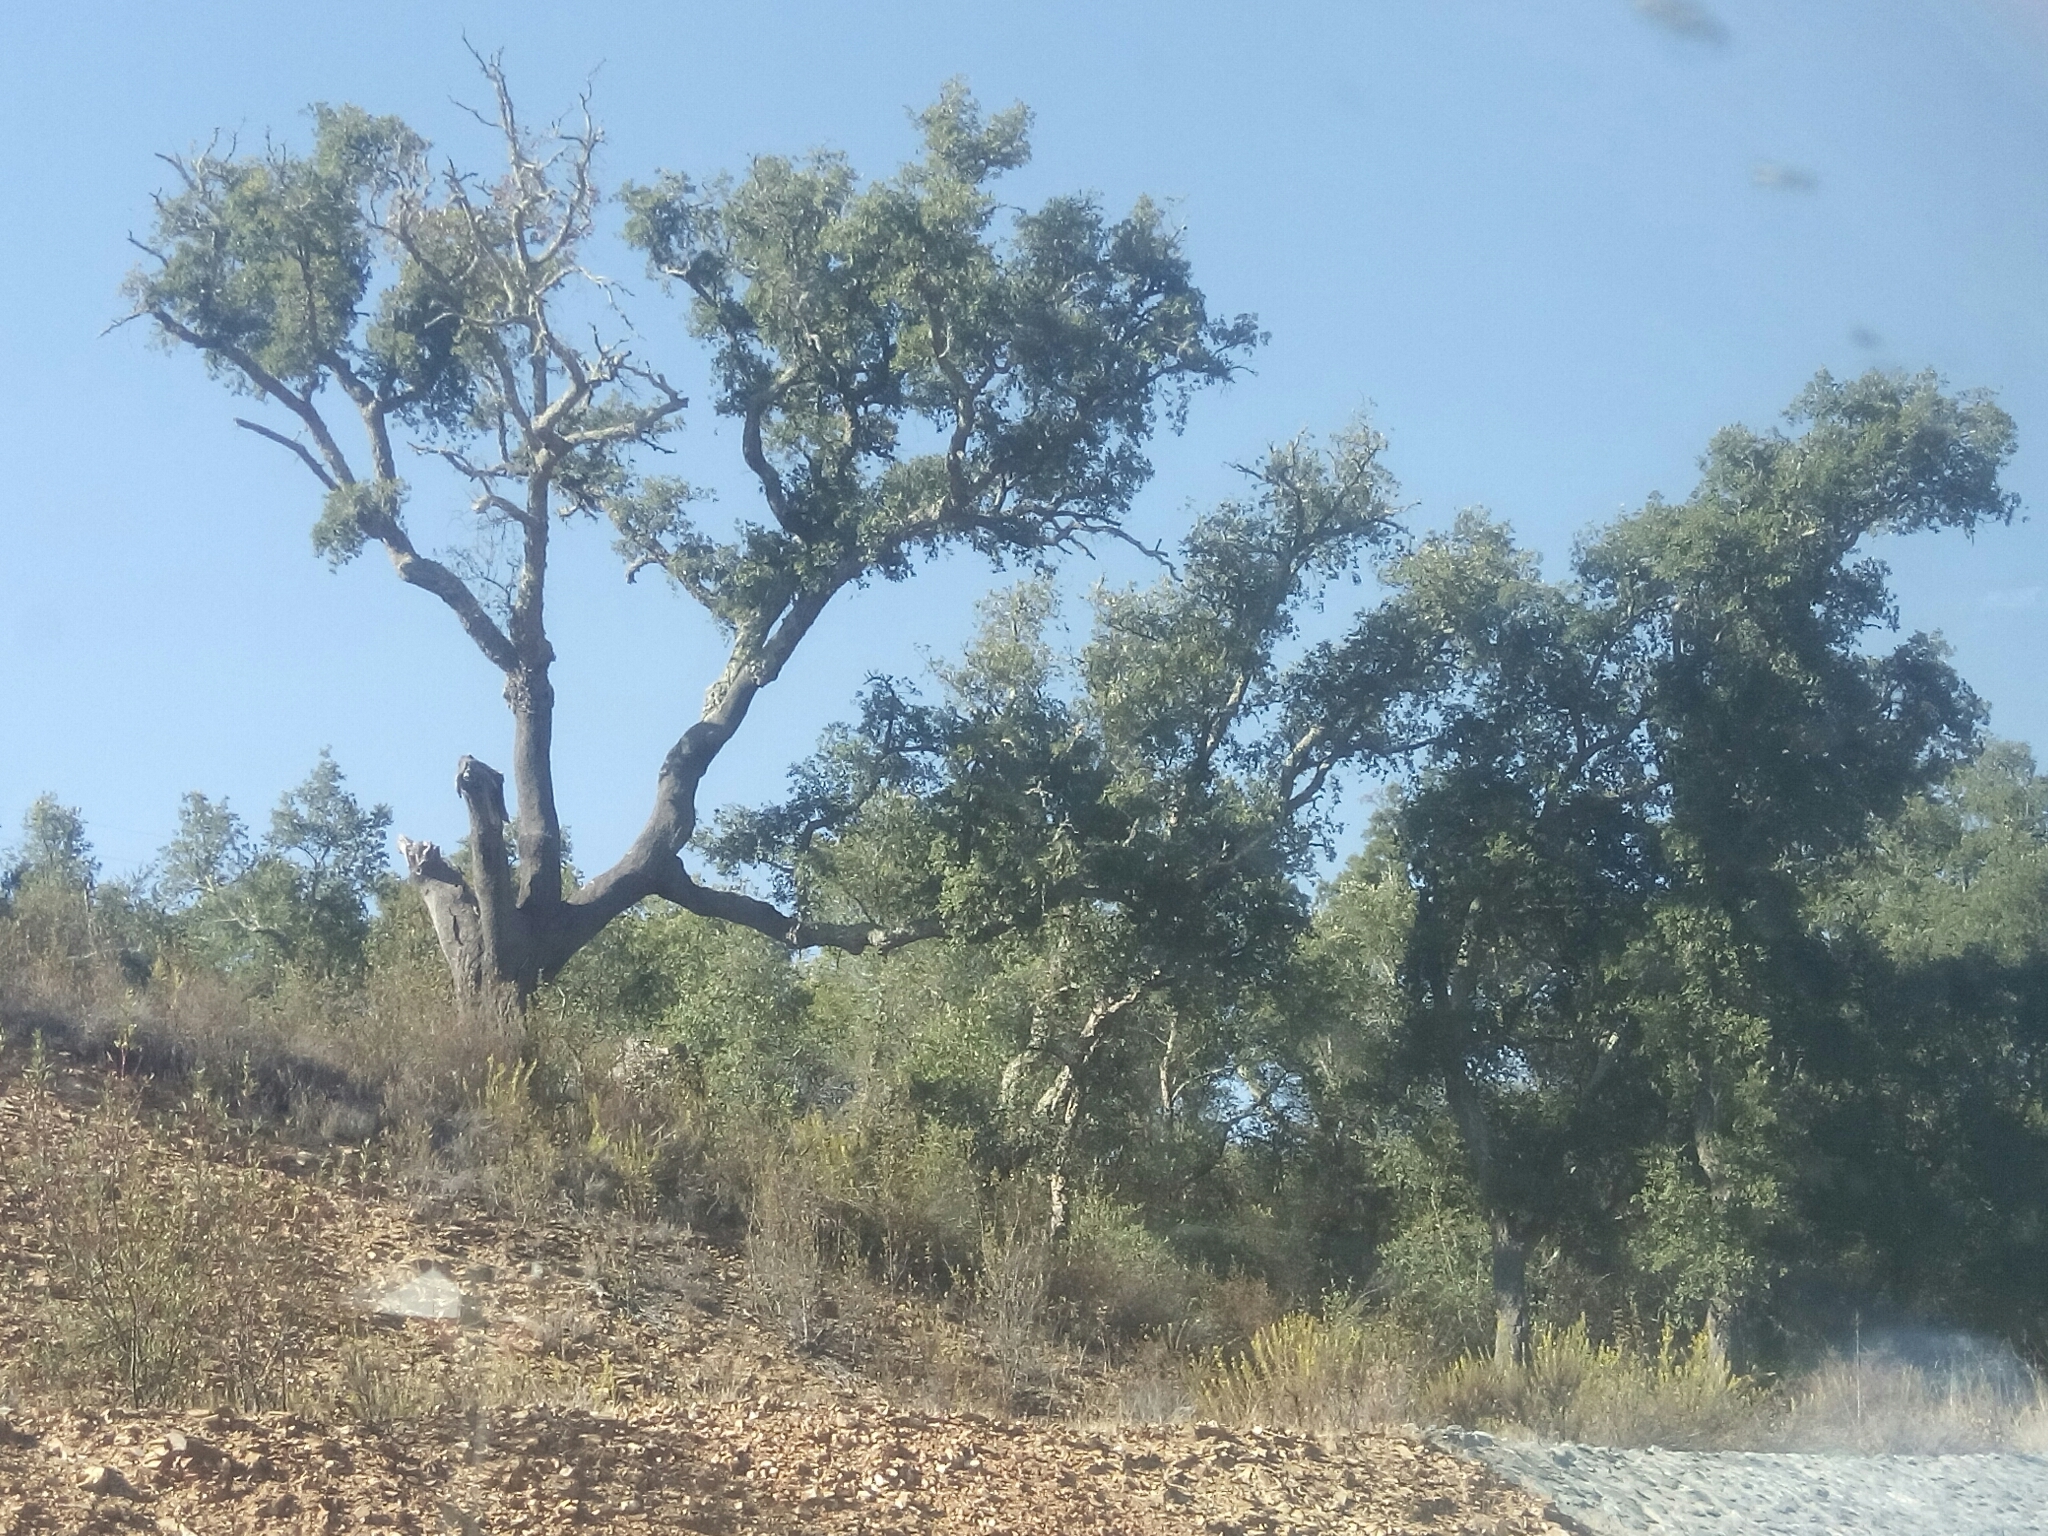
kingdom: Plantae
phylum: Tracheophyta
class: Magnoliopsida
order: Fagales
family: Fagaceae
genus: Quercus
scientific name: Quercus suber
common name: Cork oak
